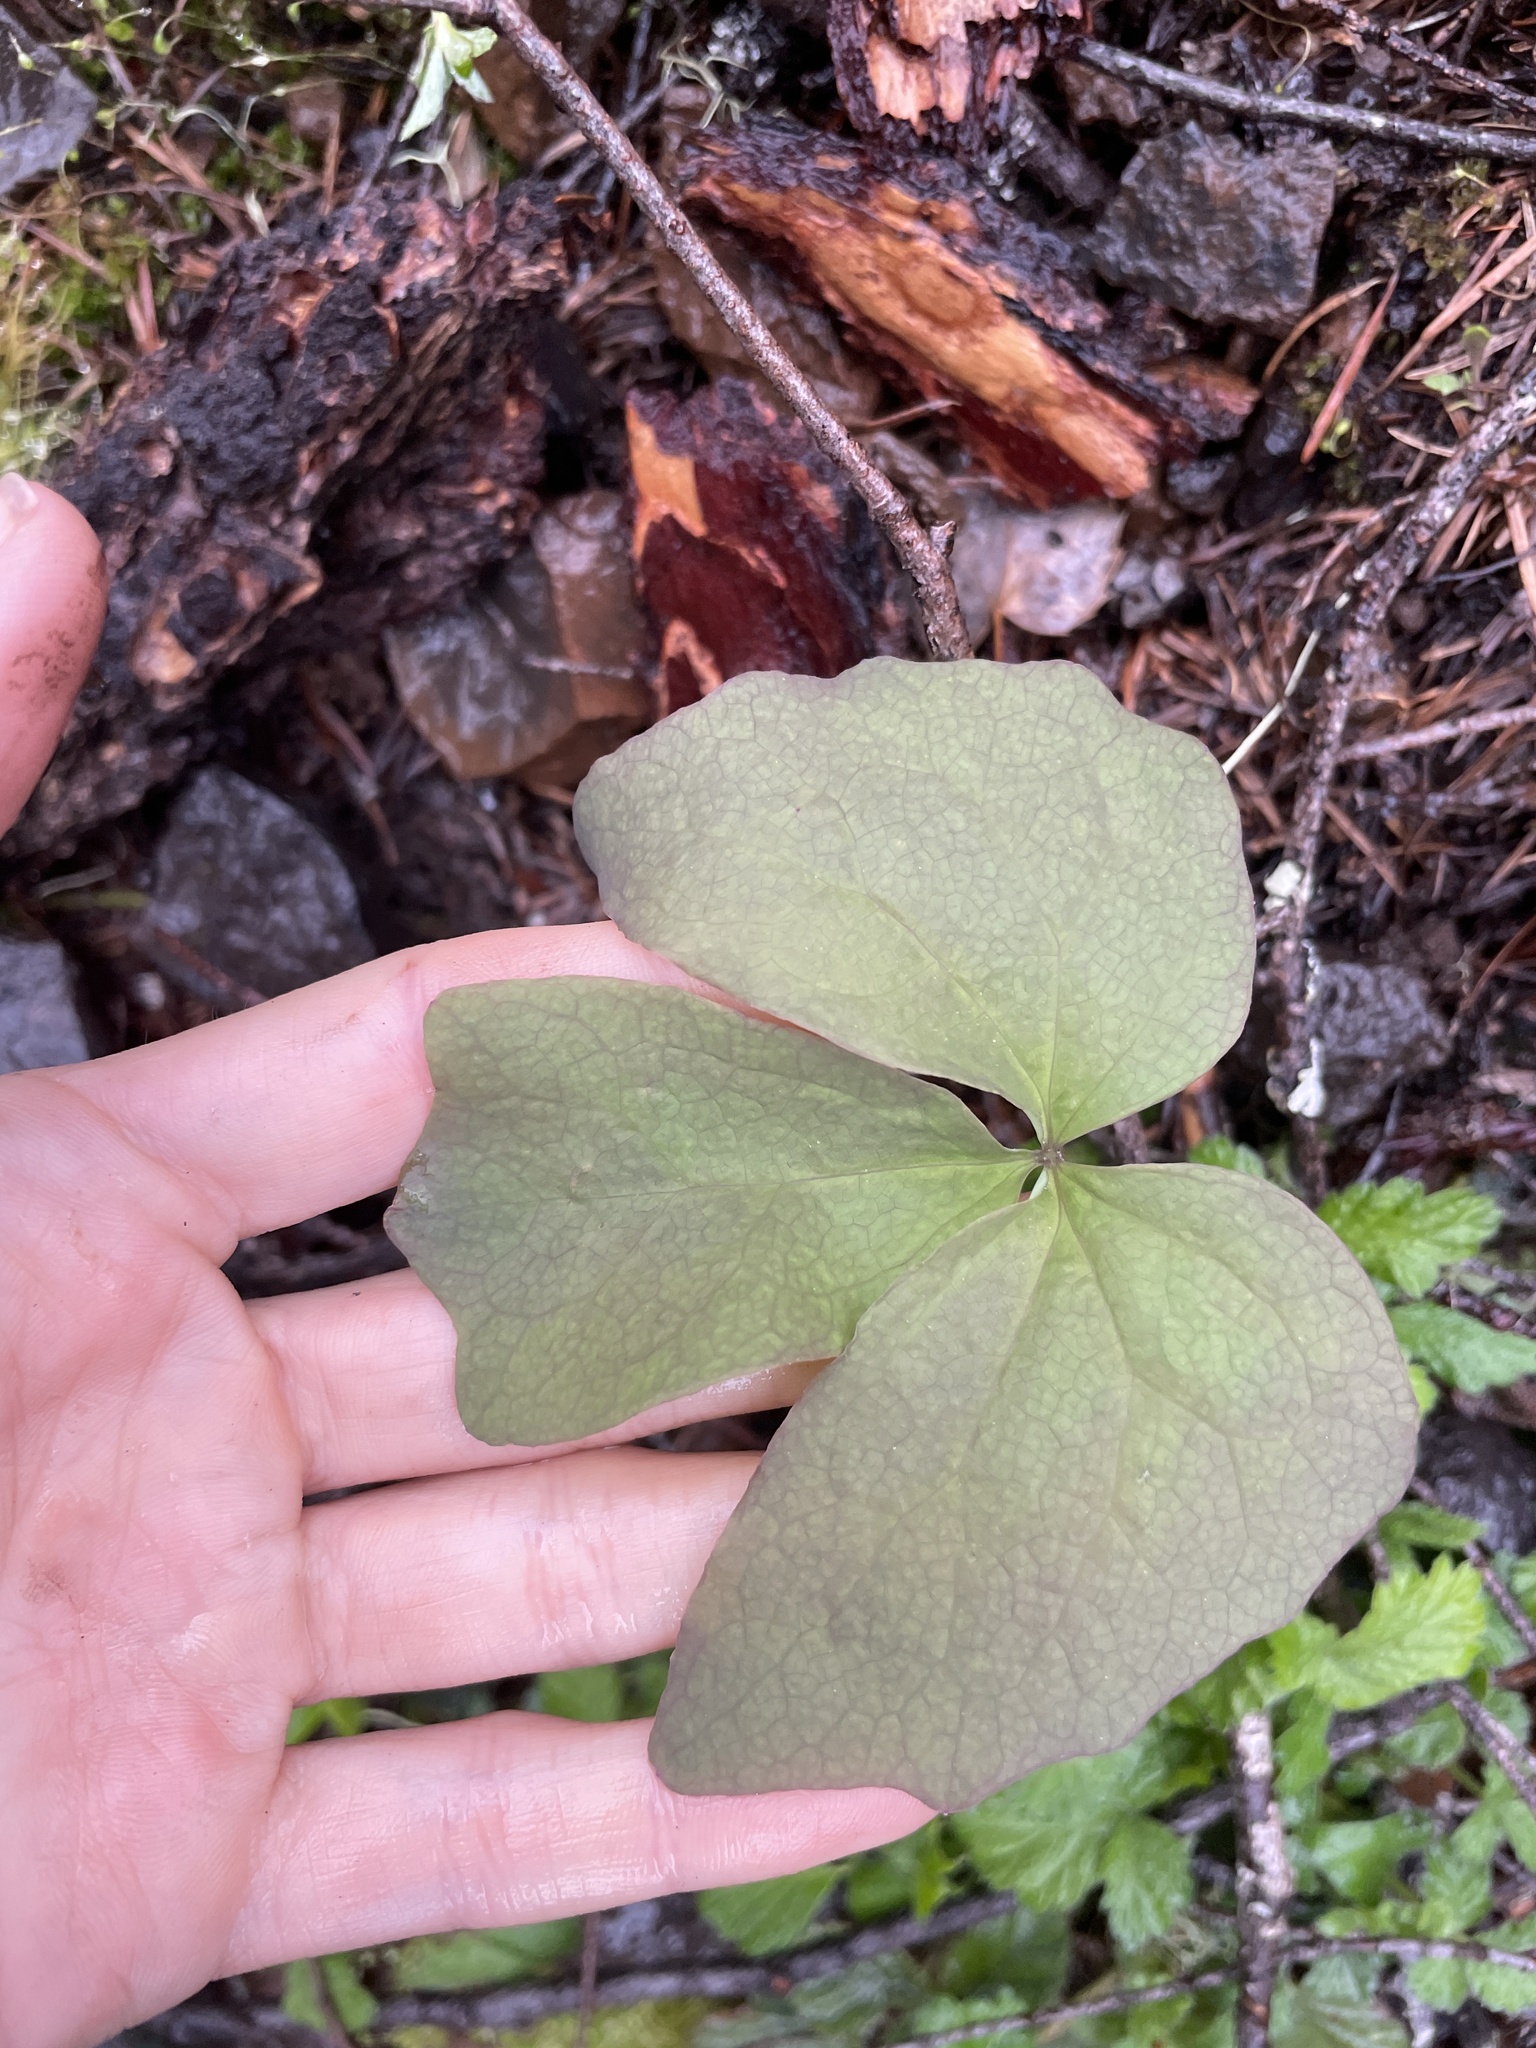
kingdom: Plantae
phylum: Tracheophyta
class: Magnoliopsida
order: Ranunculales
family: Berberidaceae
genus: Achlys
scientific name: Achlys triphylla
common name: Vanilla-leaf
